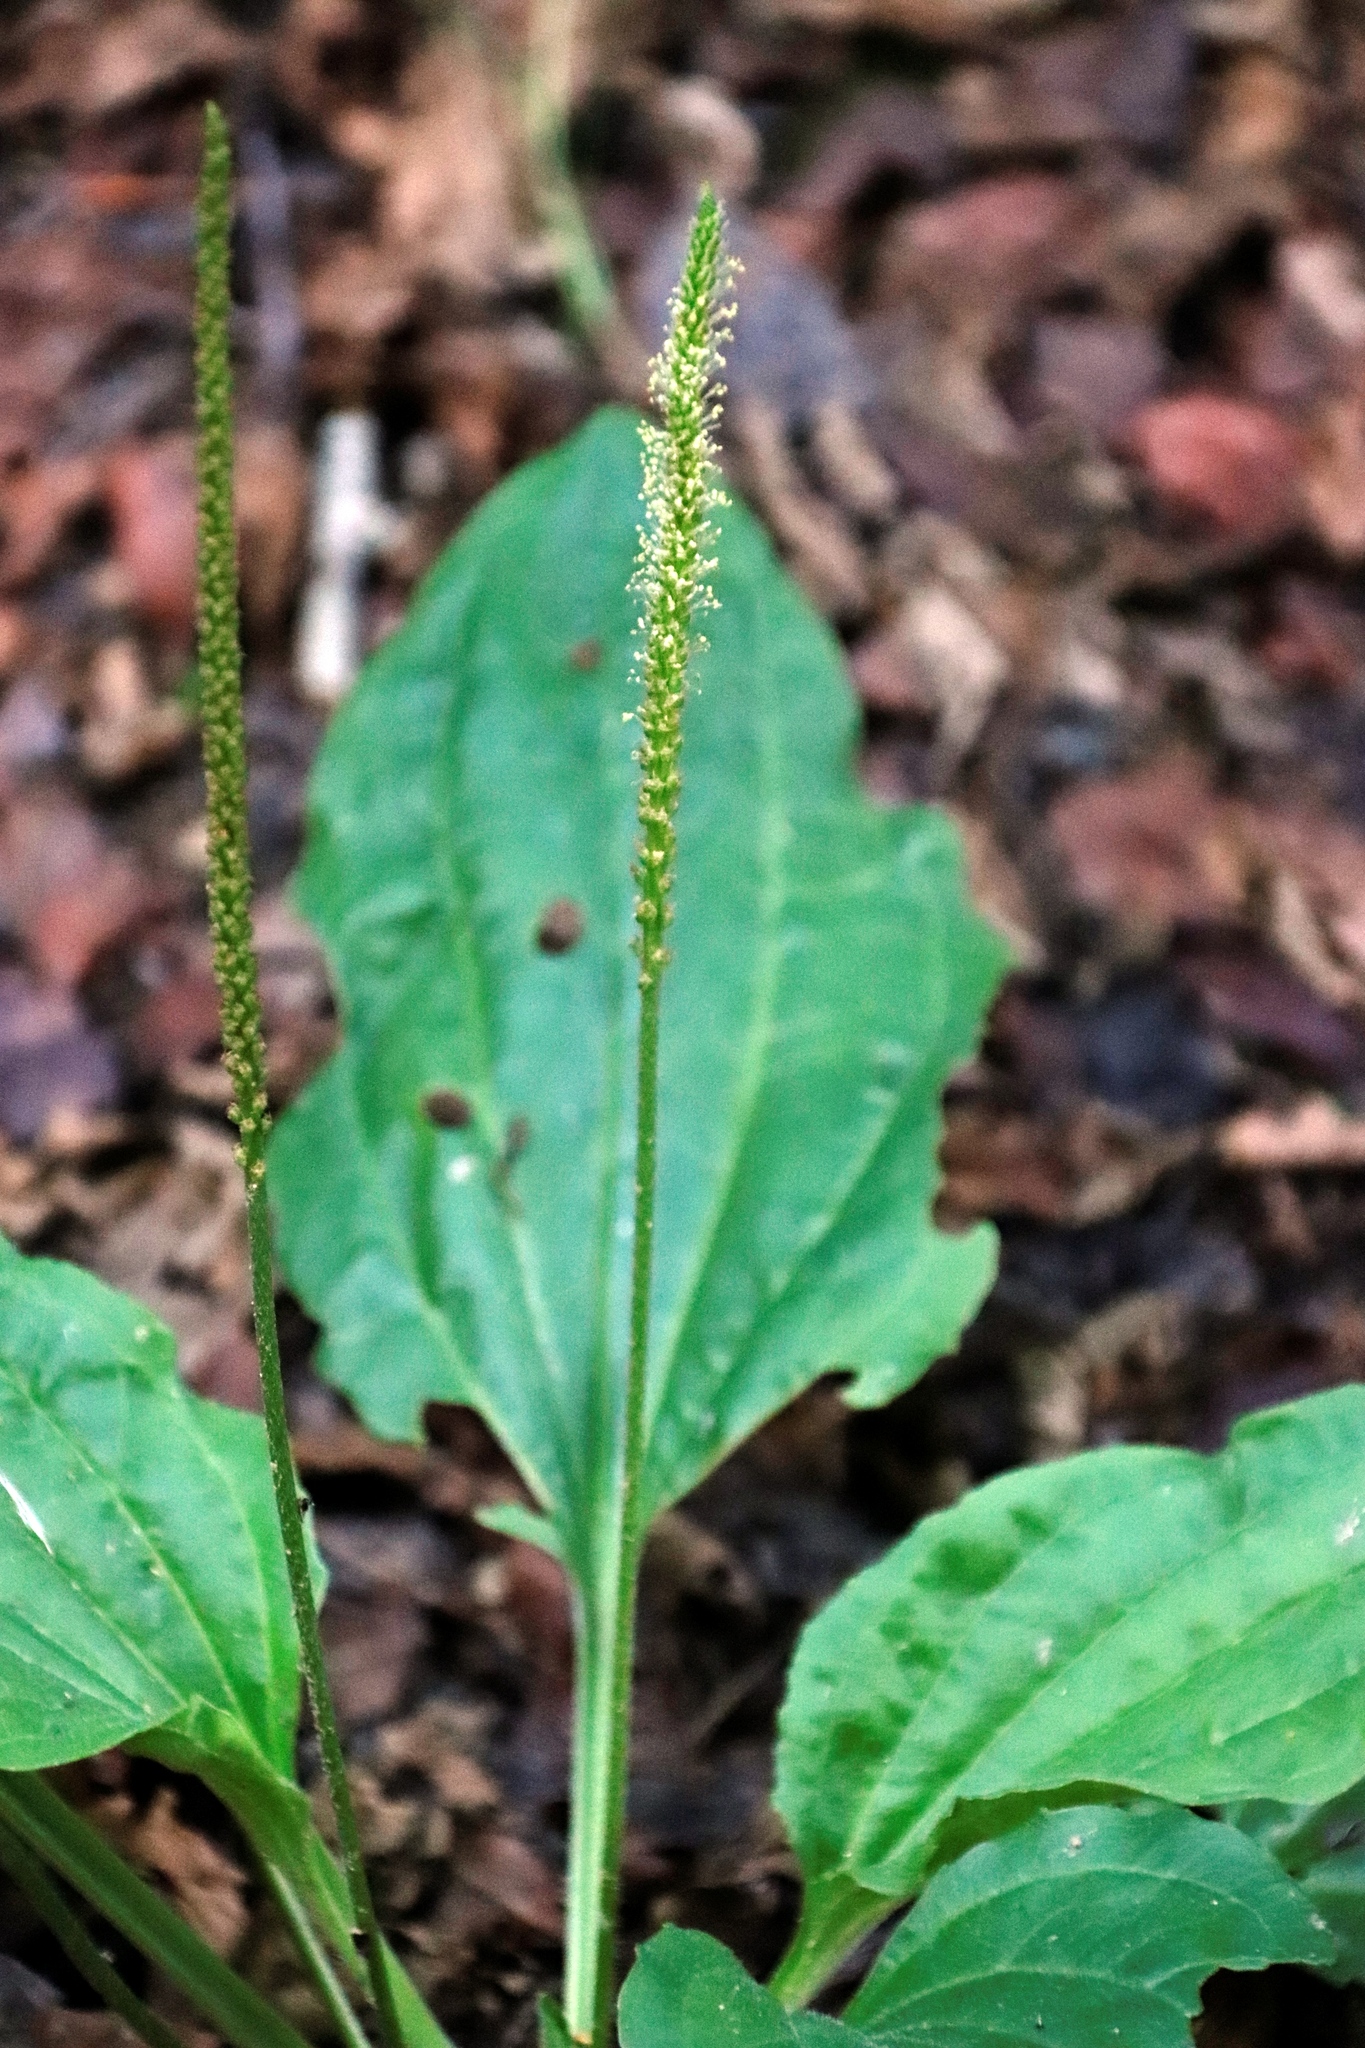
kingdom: Plantae
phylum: Tracheophyta
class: Magnoliopsida
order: Lamiales
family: Plantaginaceae
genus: Plantago
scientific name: Plantago major
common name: Common plantain
